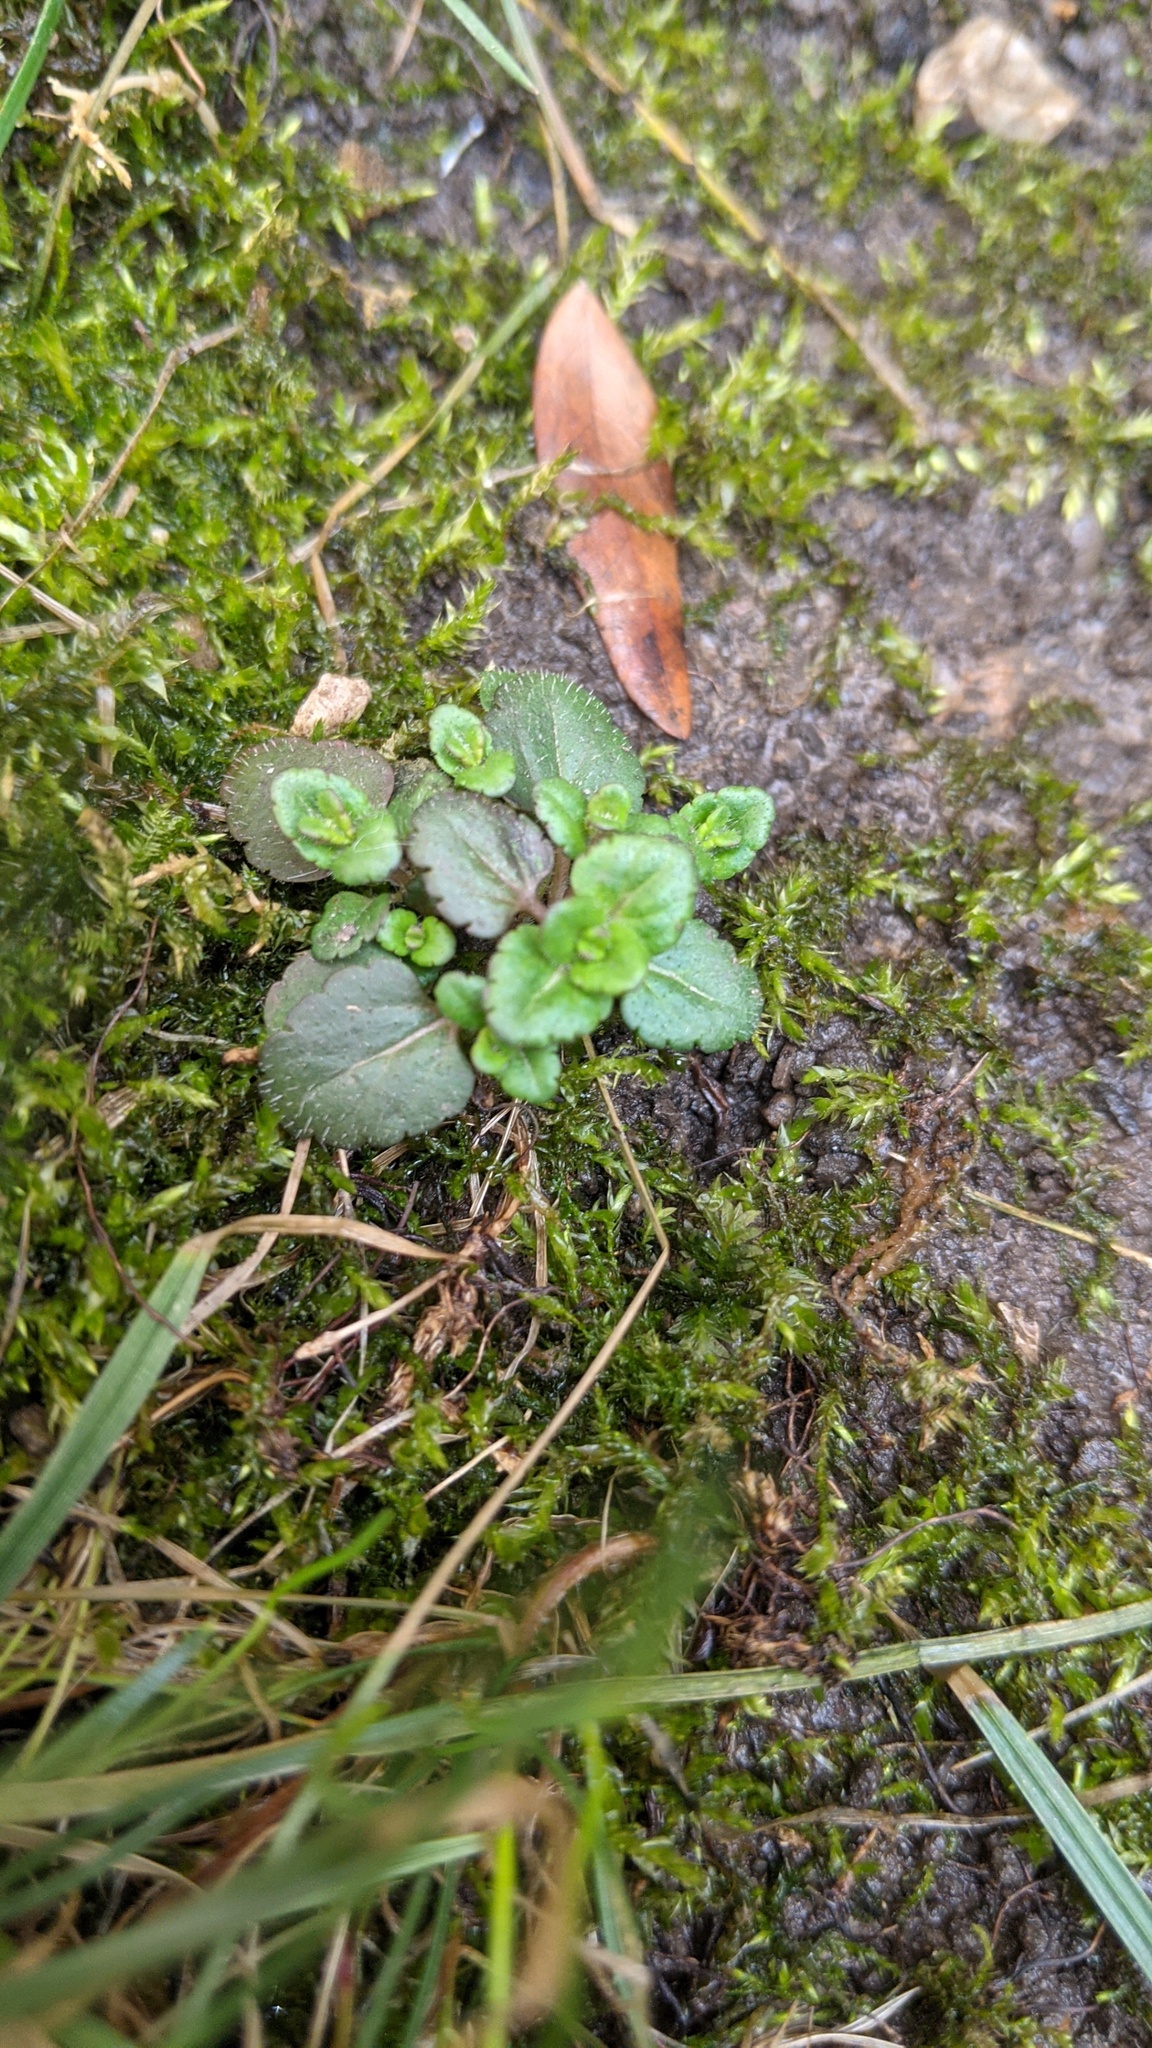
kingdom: Plantae
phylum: Tracheophyta
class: Magnoliopsida
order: Lamiales
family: Plantaginaceae
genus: Veronica
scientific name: Veronica arvensis
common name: Corn speedwell
